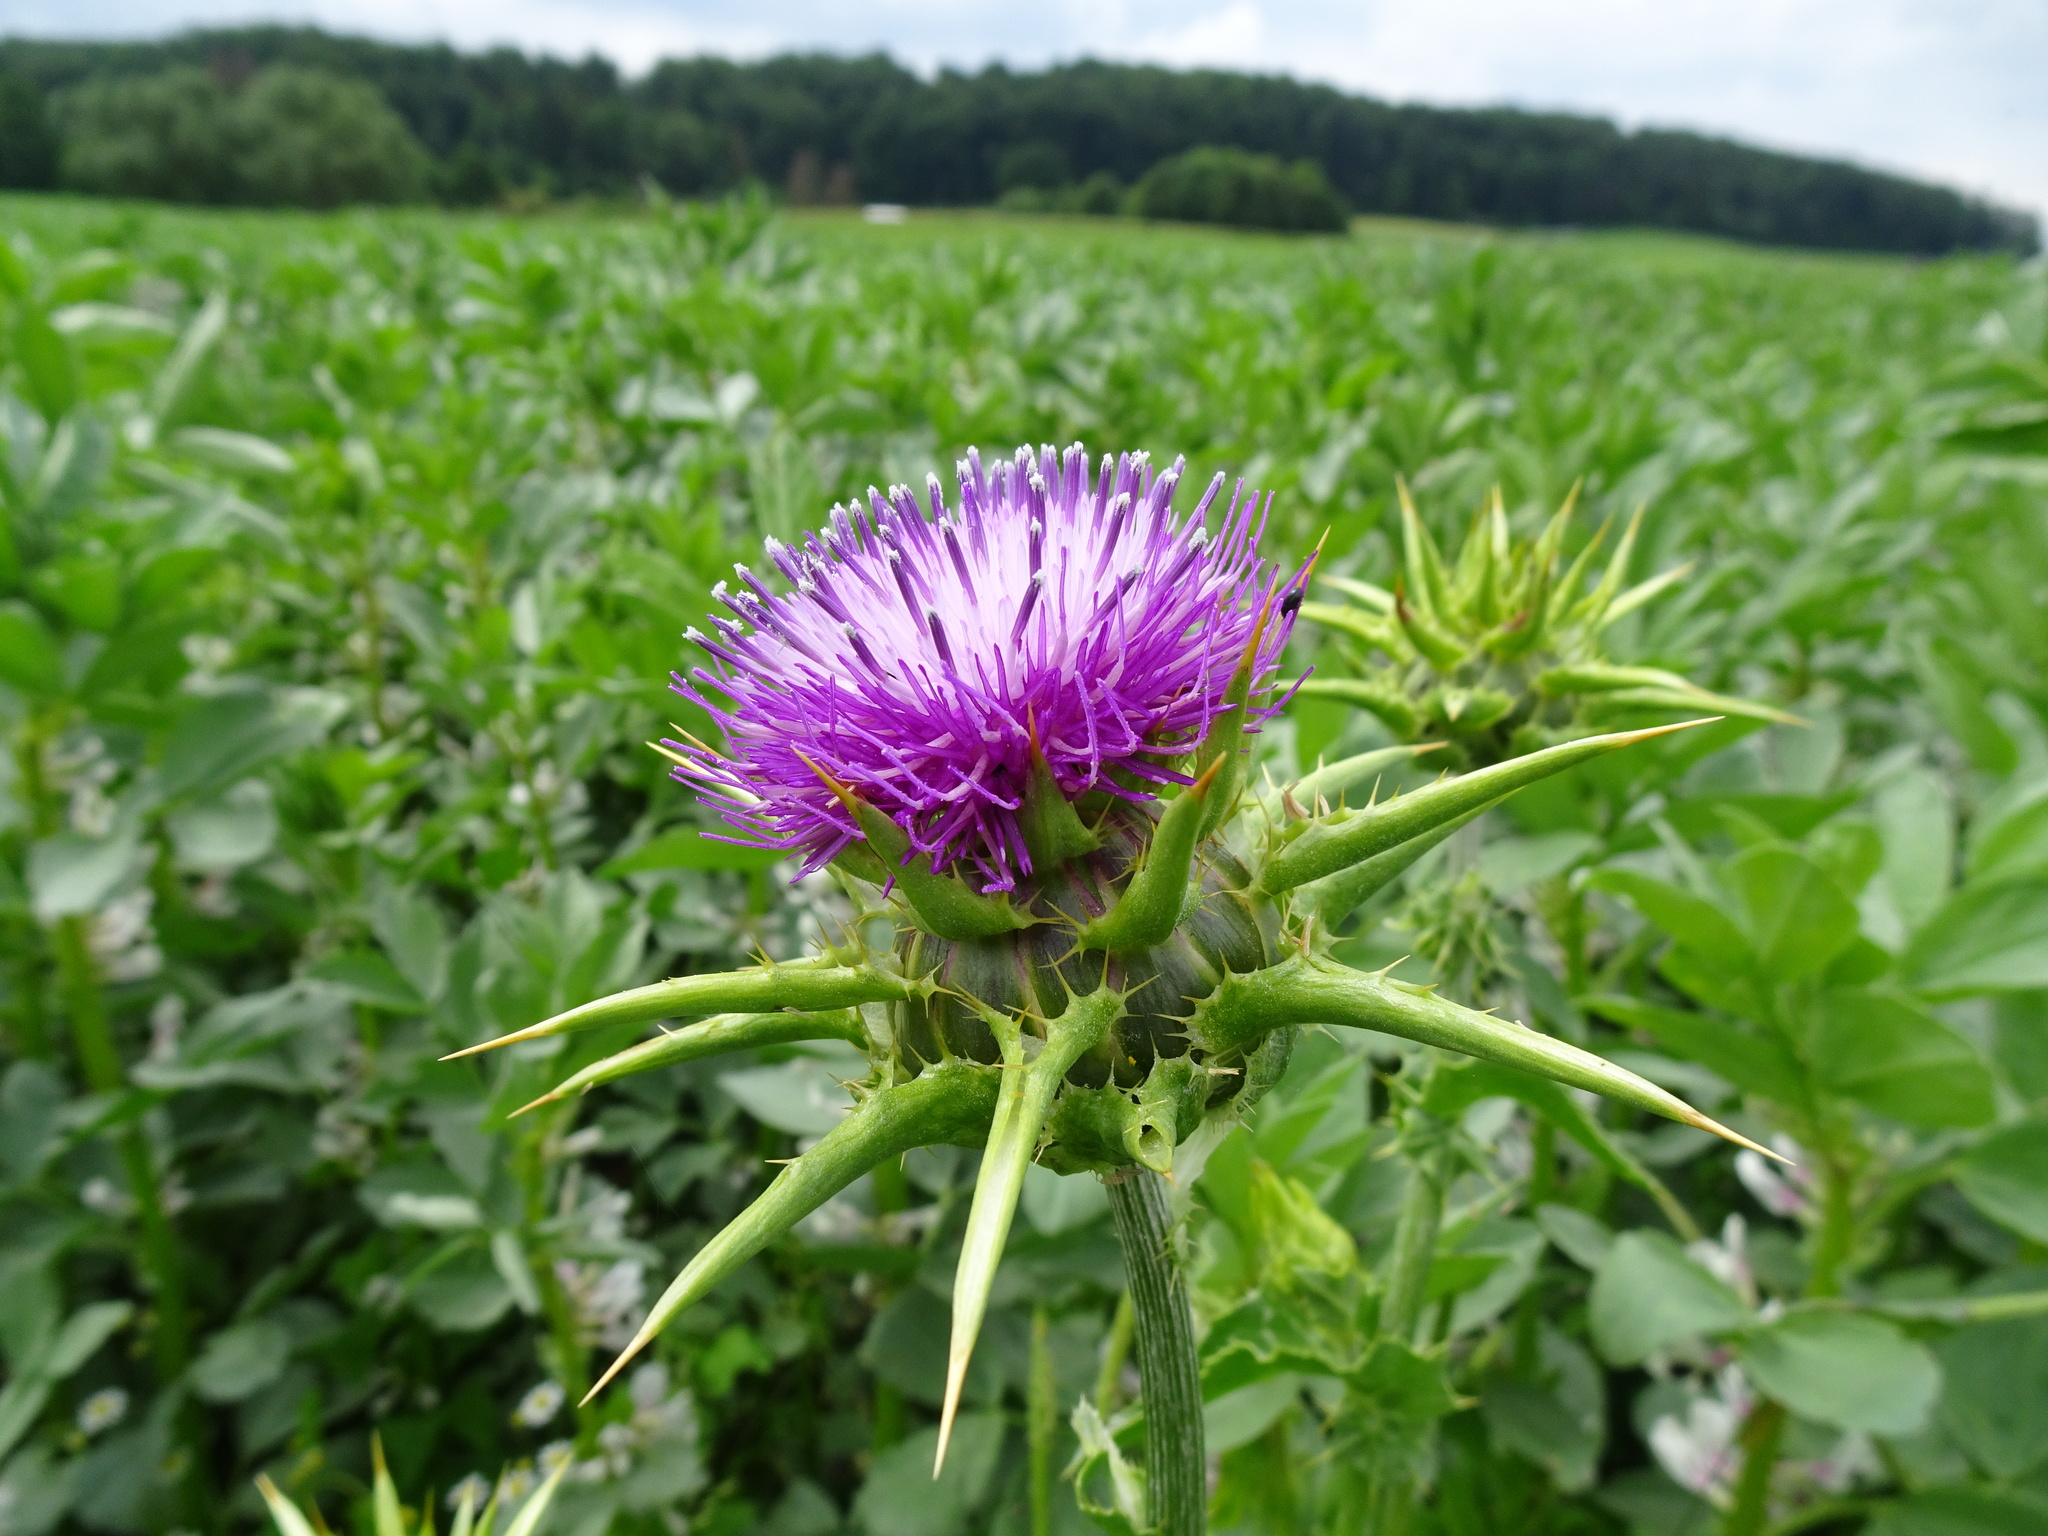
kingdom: Plantae
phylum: Tracheophyta
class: Magnoliopsida
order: Asterales
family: Asteraceae
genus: Silybum
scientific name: Silybum marianum
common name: Milk thistle
